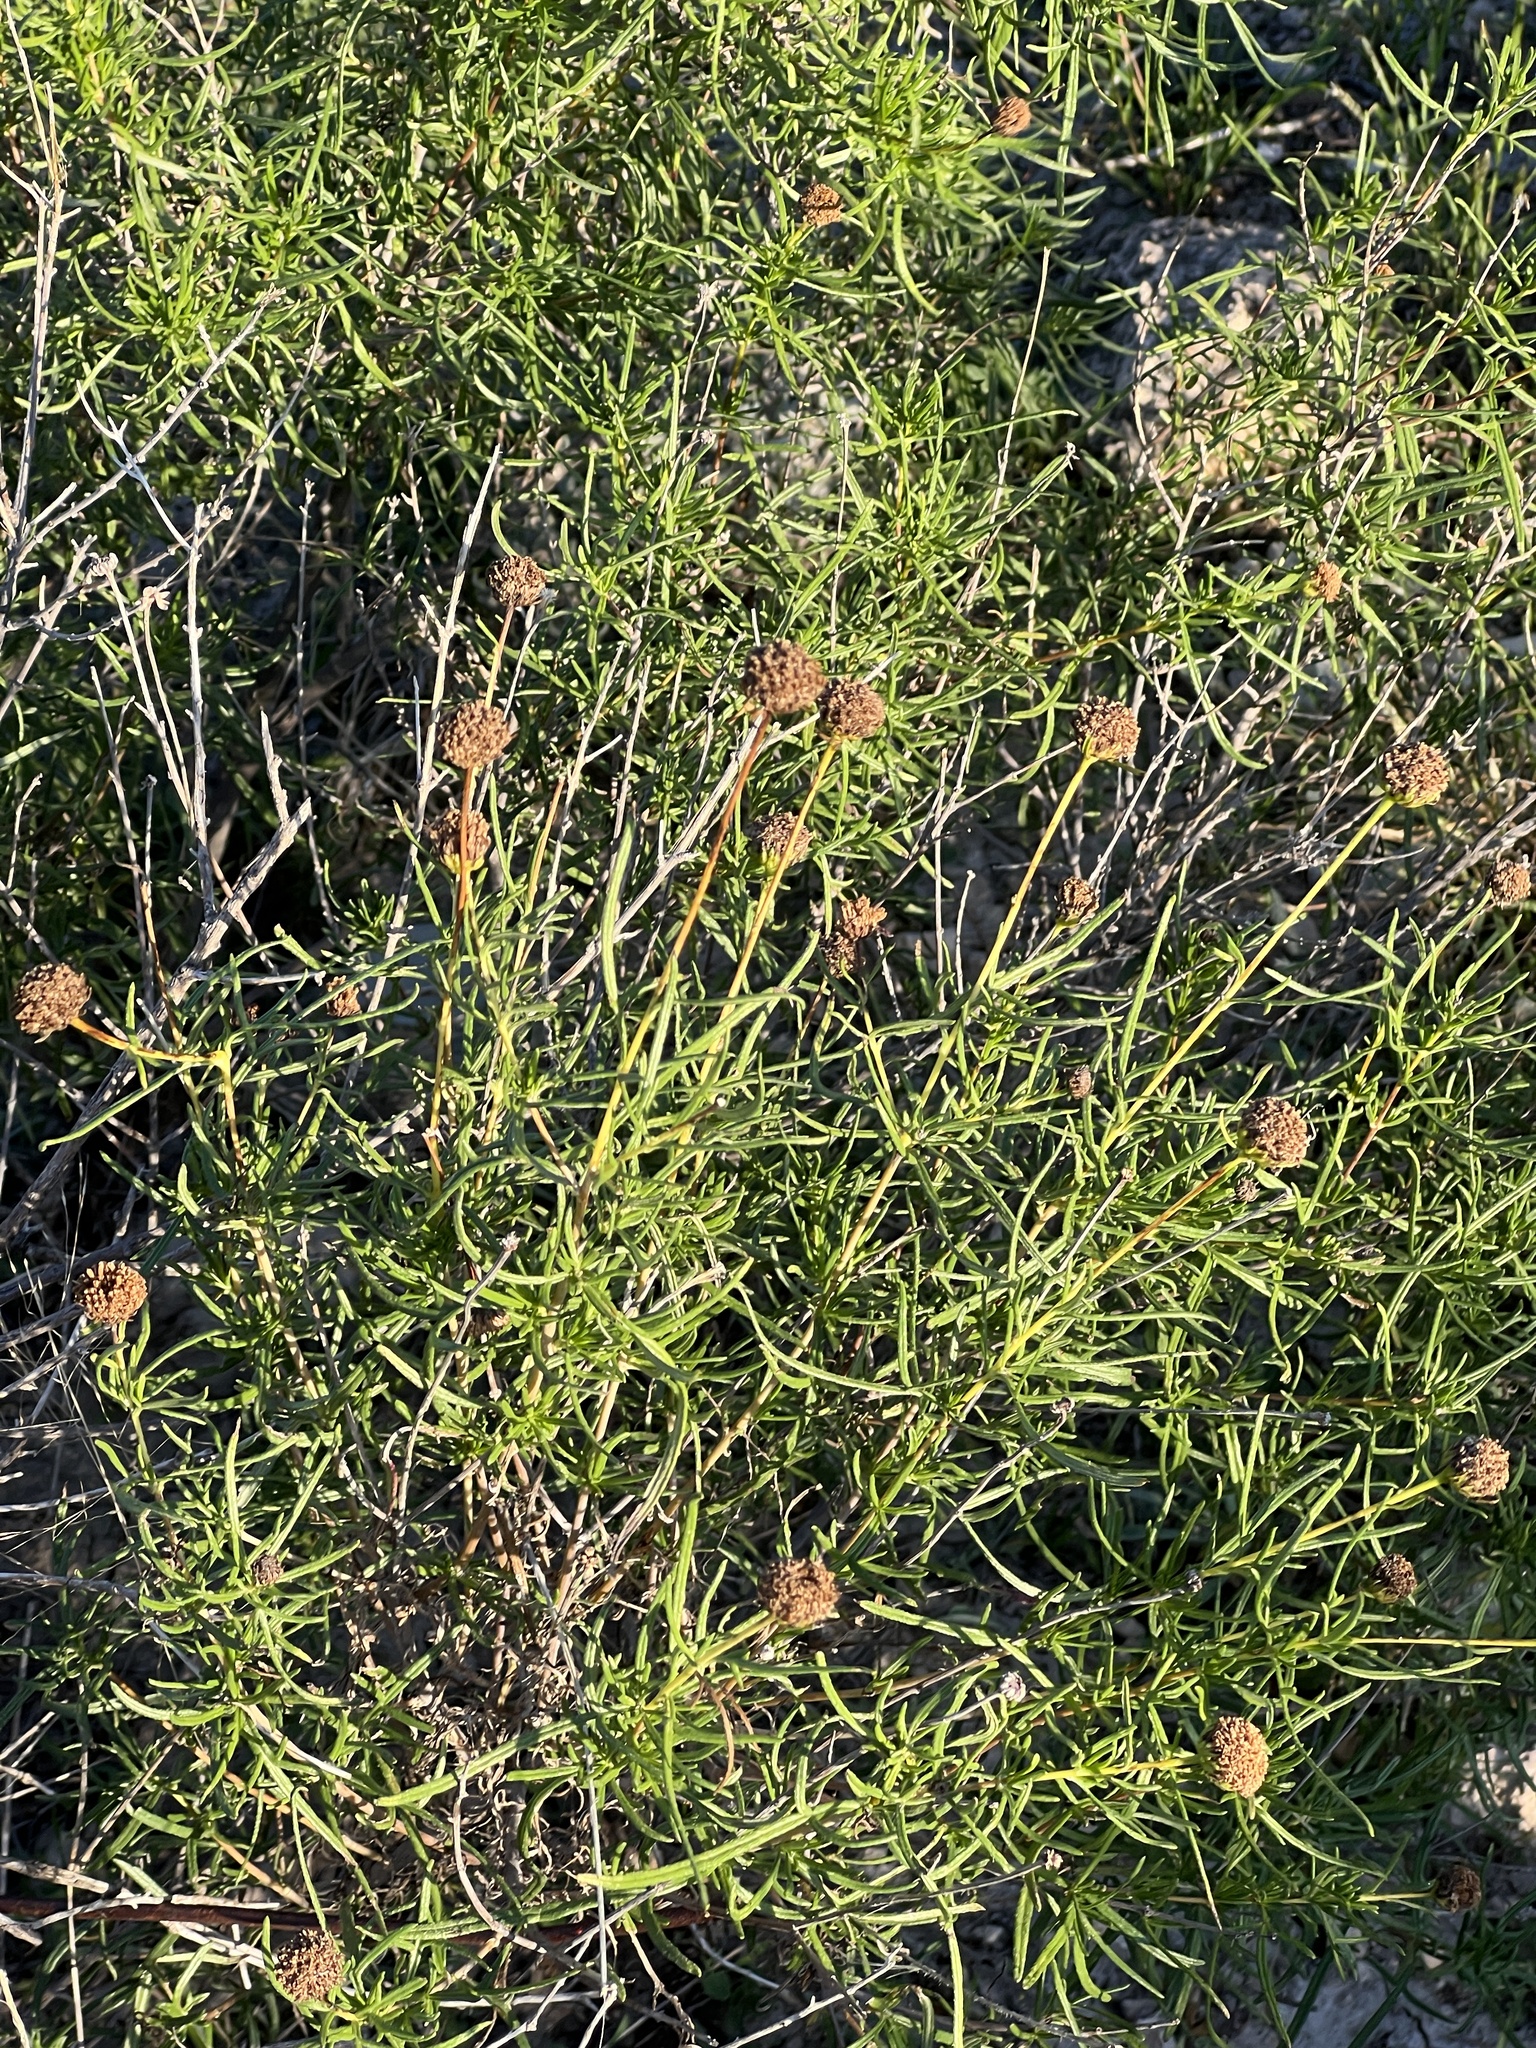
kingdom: Plantae
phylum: Tracheophyta
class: Magnoliopsida
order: Asterales
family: Asteraceae
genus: Sidneya
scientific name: Sidneya tenuifolia
